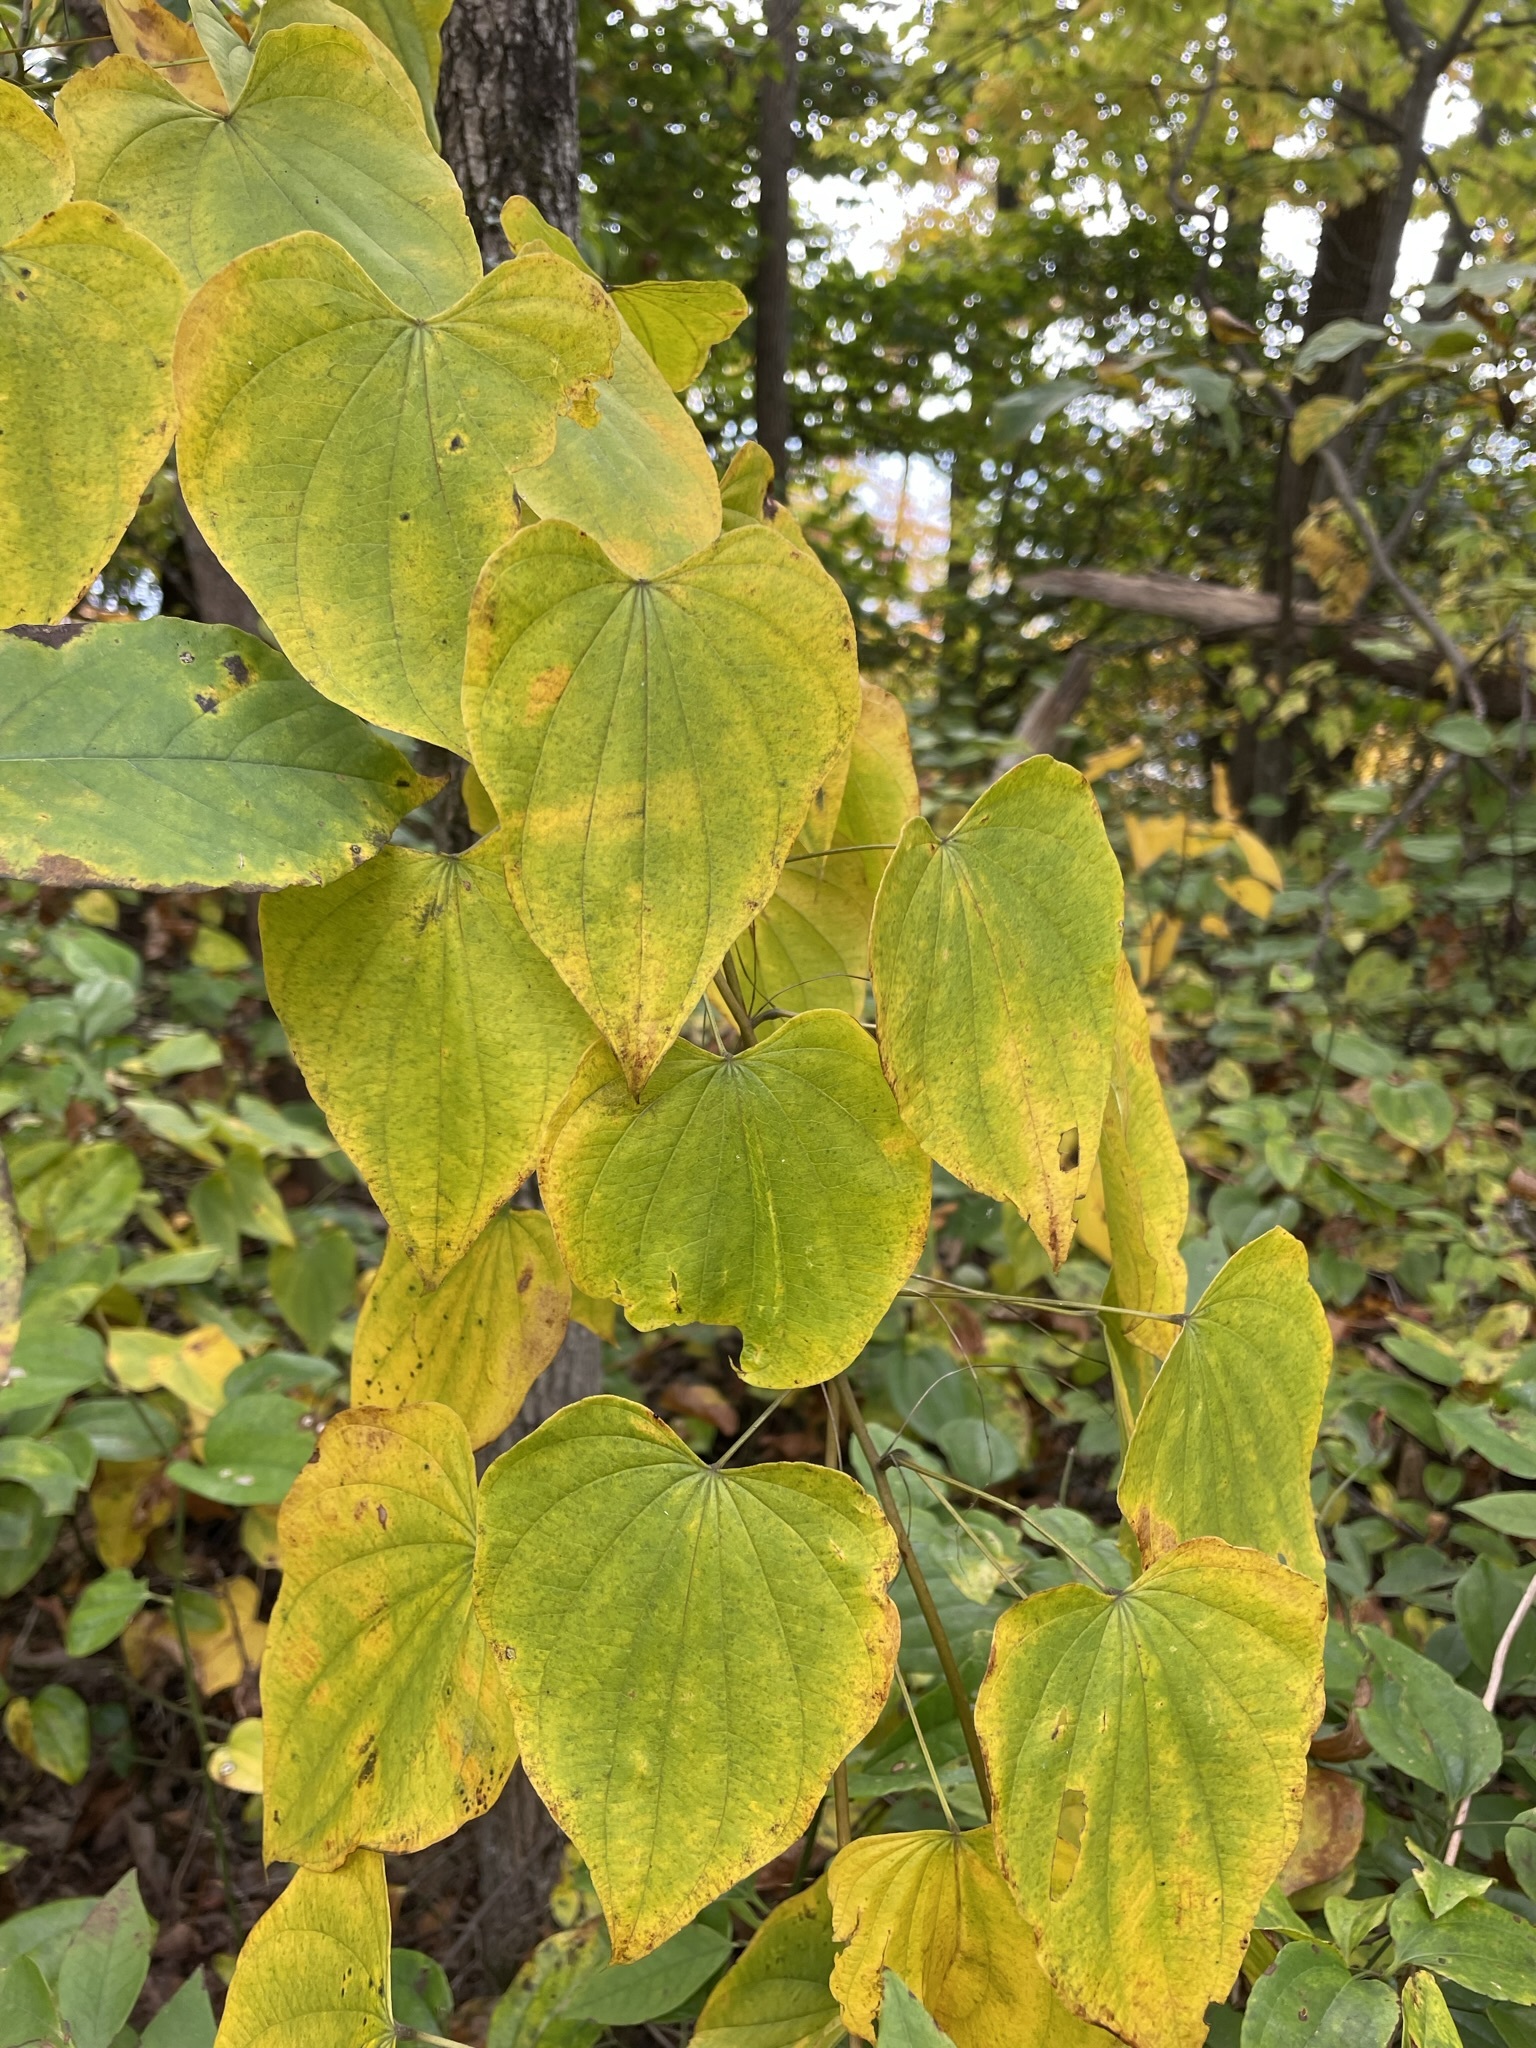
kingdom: Plantae
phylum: Tracheophyta
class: Liliopsida
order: Dioscoreales
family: Dioscoreaceae
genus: Dioscorea
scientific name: Dioscorea villosa
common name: Wild yam
